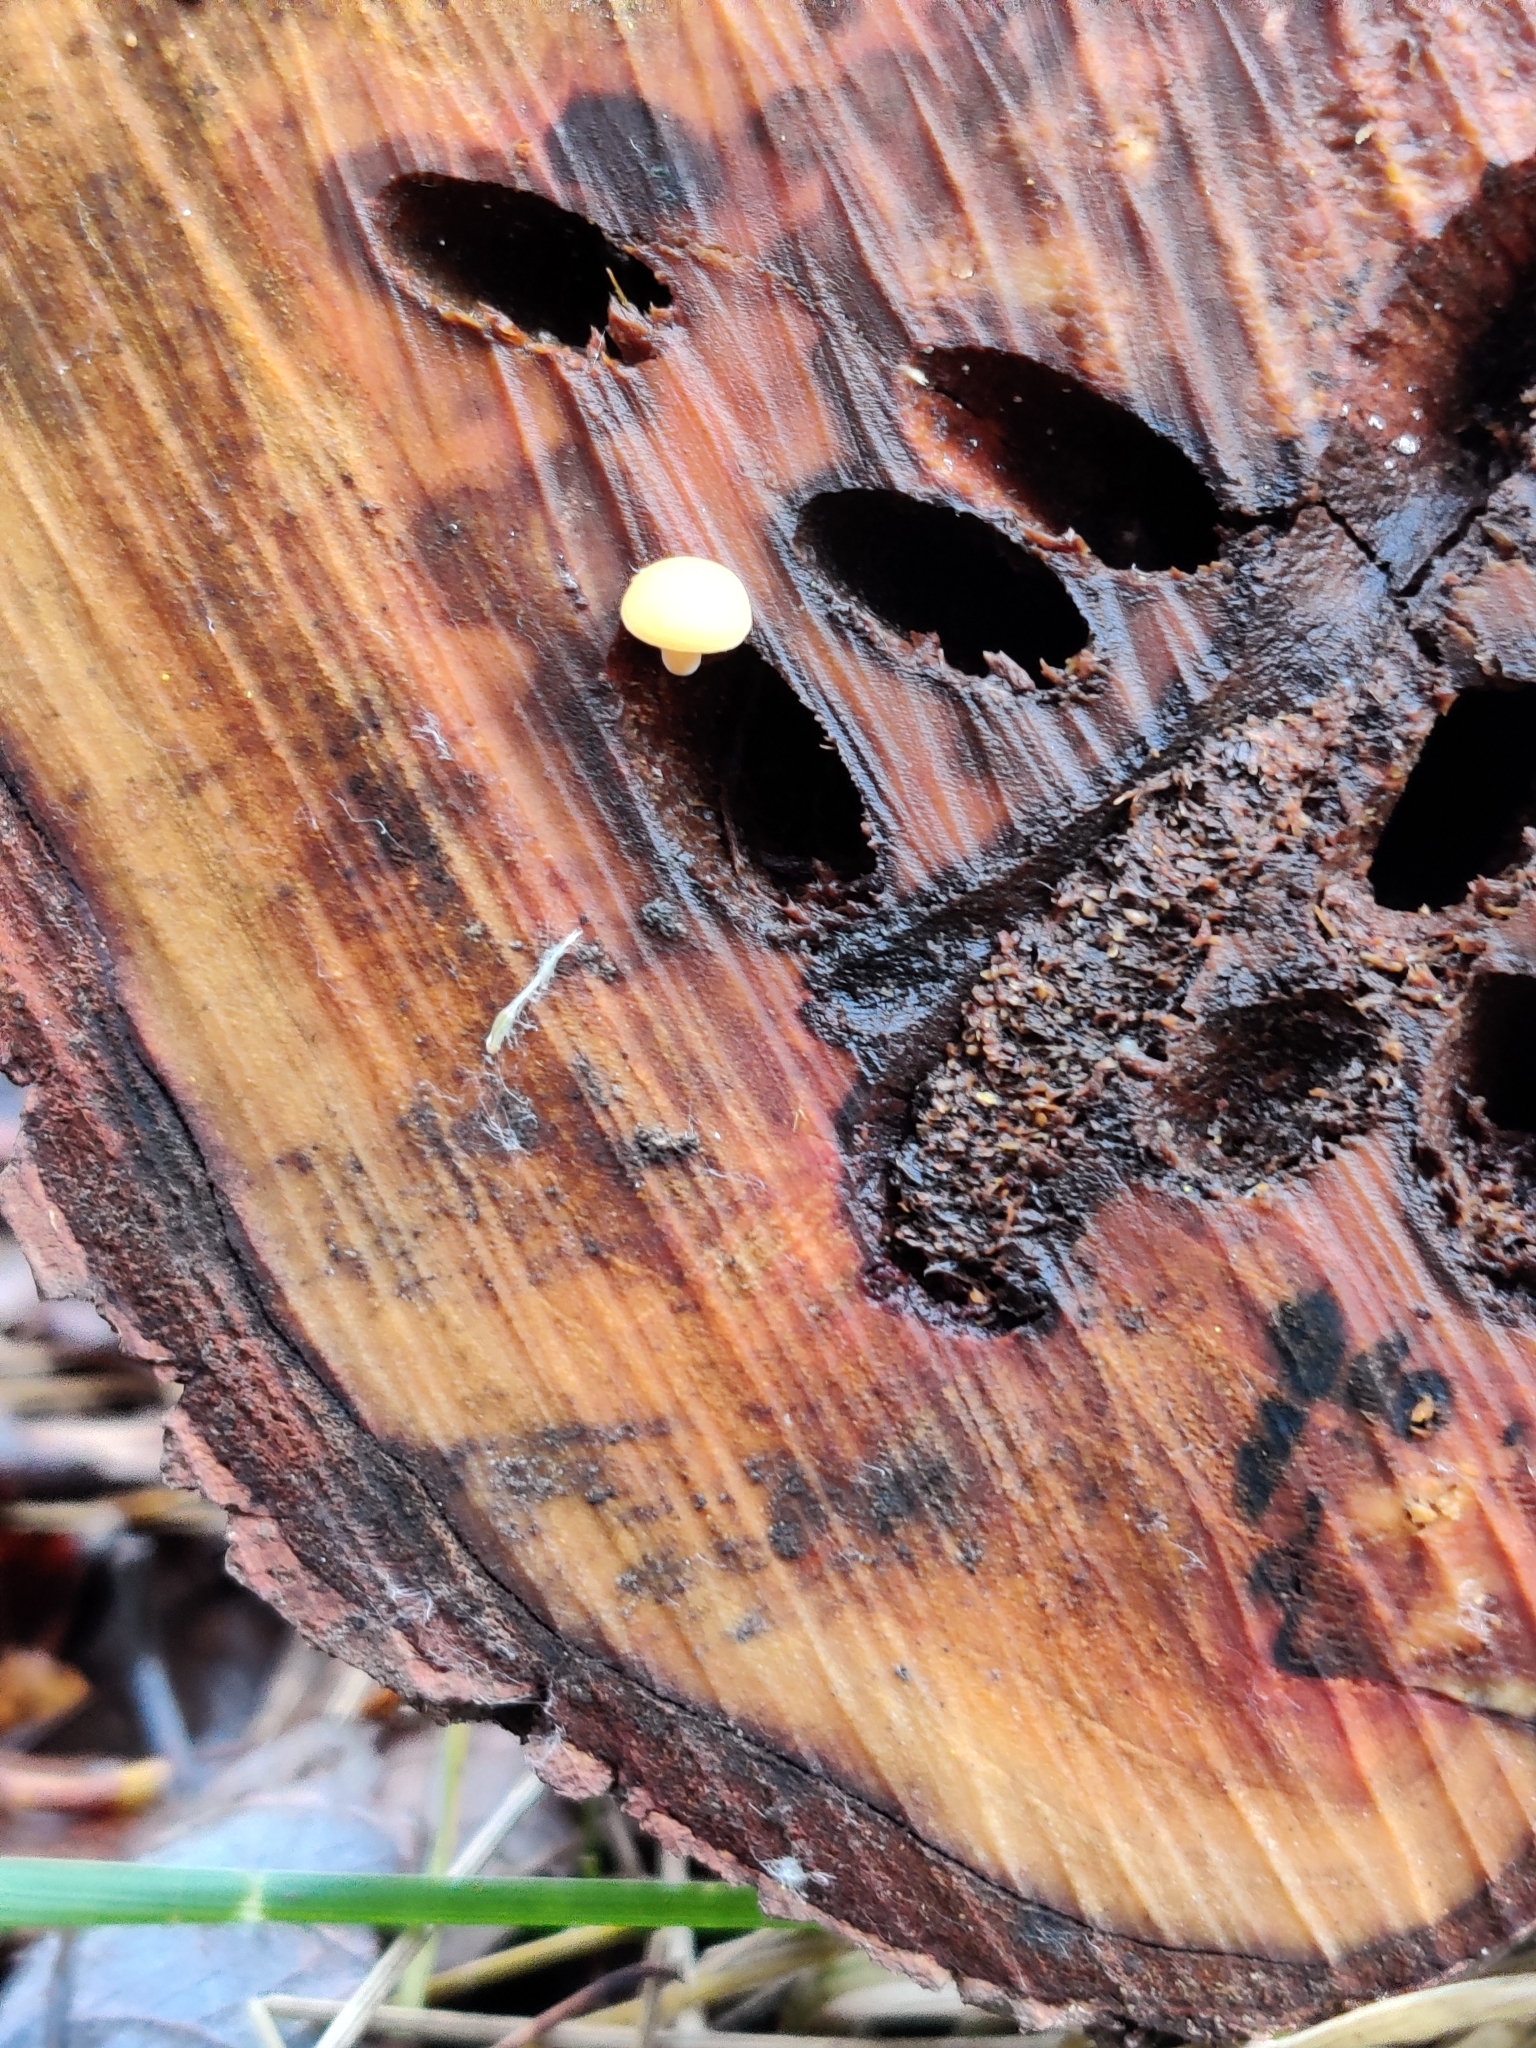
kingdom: Fungi
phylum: Basidiomycota
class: Agaricomycetes
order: Agaricales
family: Physalacriaceae
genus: Flammulina
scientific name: Flammulina
